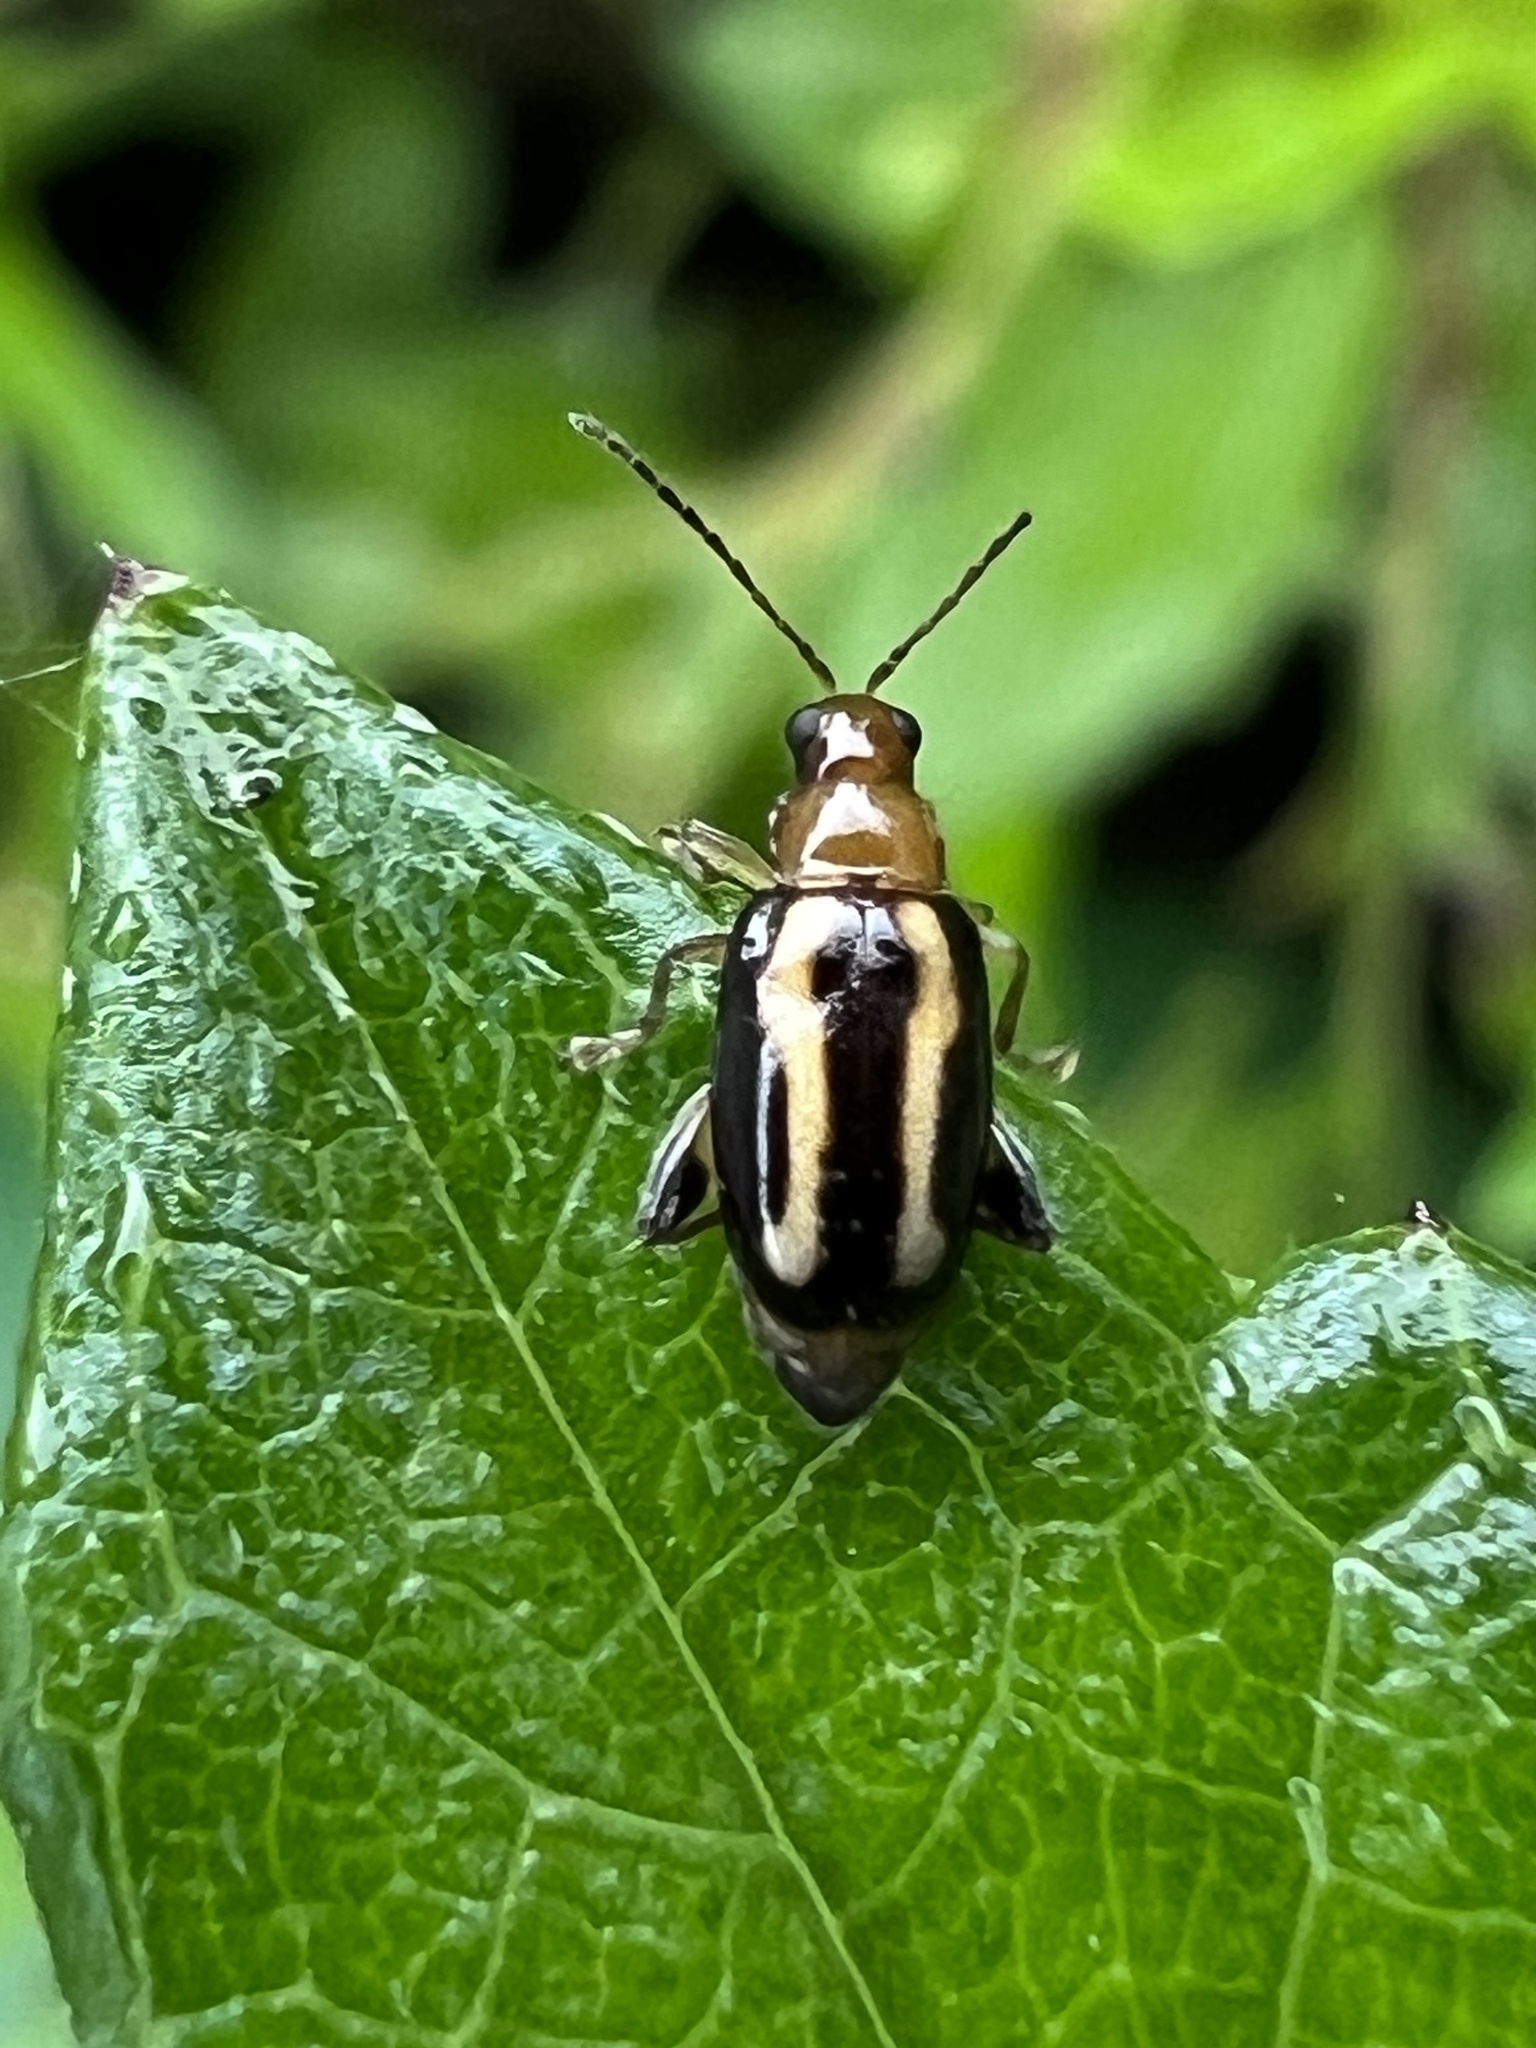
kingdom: Animalia
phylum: Arthropoda
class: Insecta
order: Coleoptera
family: Chrysomelidae
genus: Systena
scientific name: Systena s-littera
